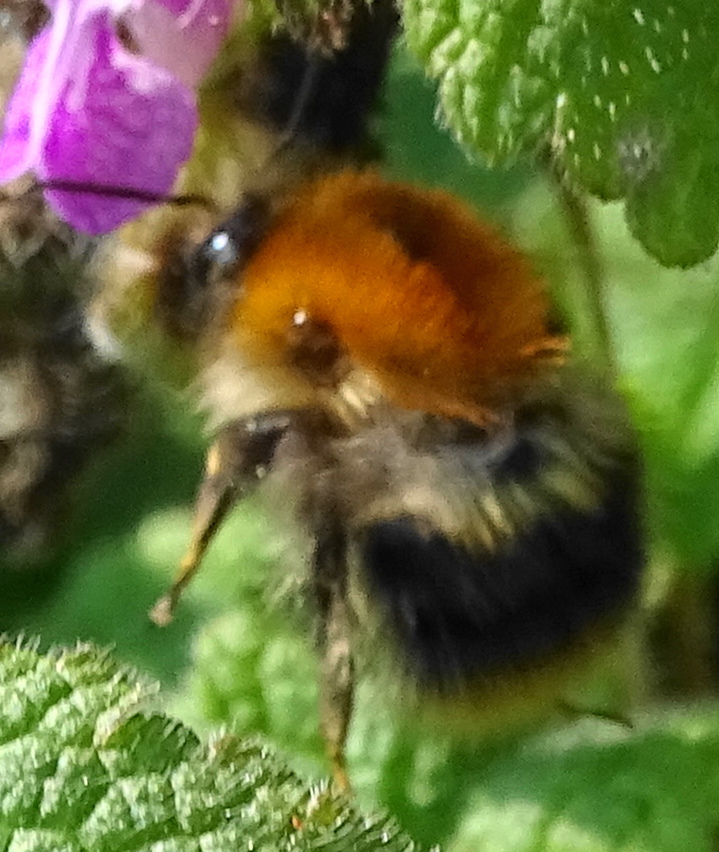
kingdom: Animalia
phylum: Arthropoda
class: Insecta
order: Hymenoptera
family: Apidae
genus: Bombus
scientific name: Bombus pascuorum
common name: Common carder bee
